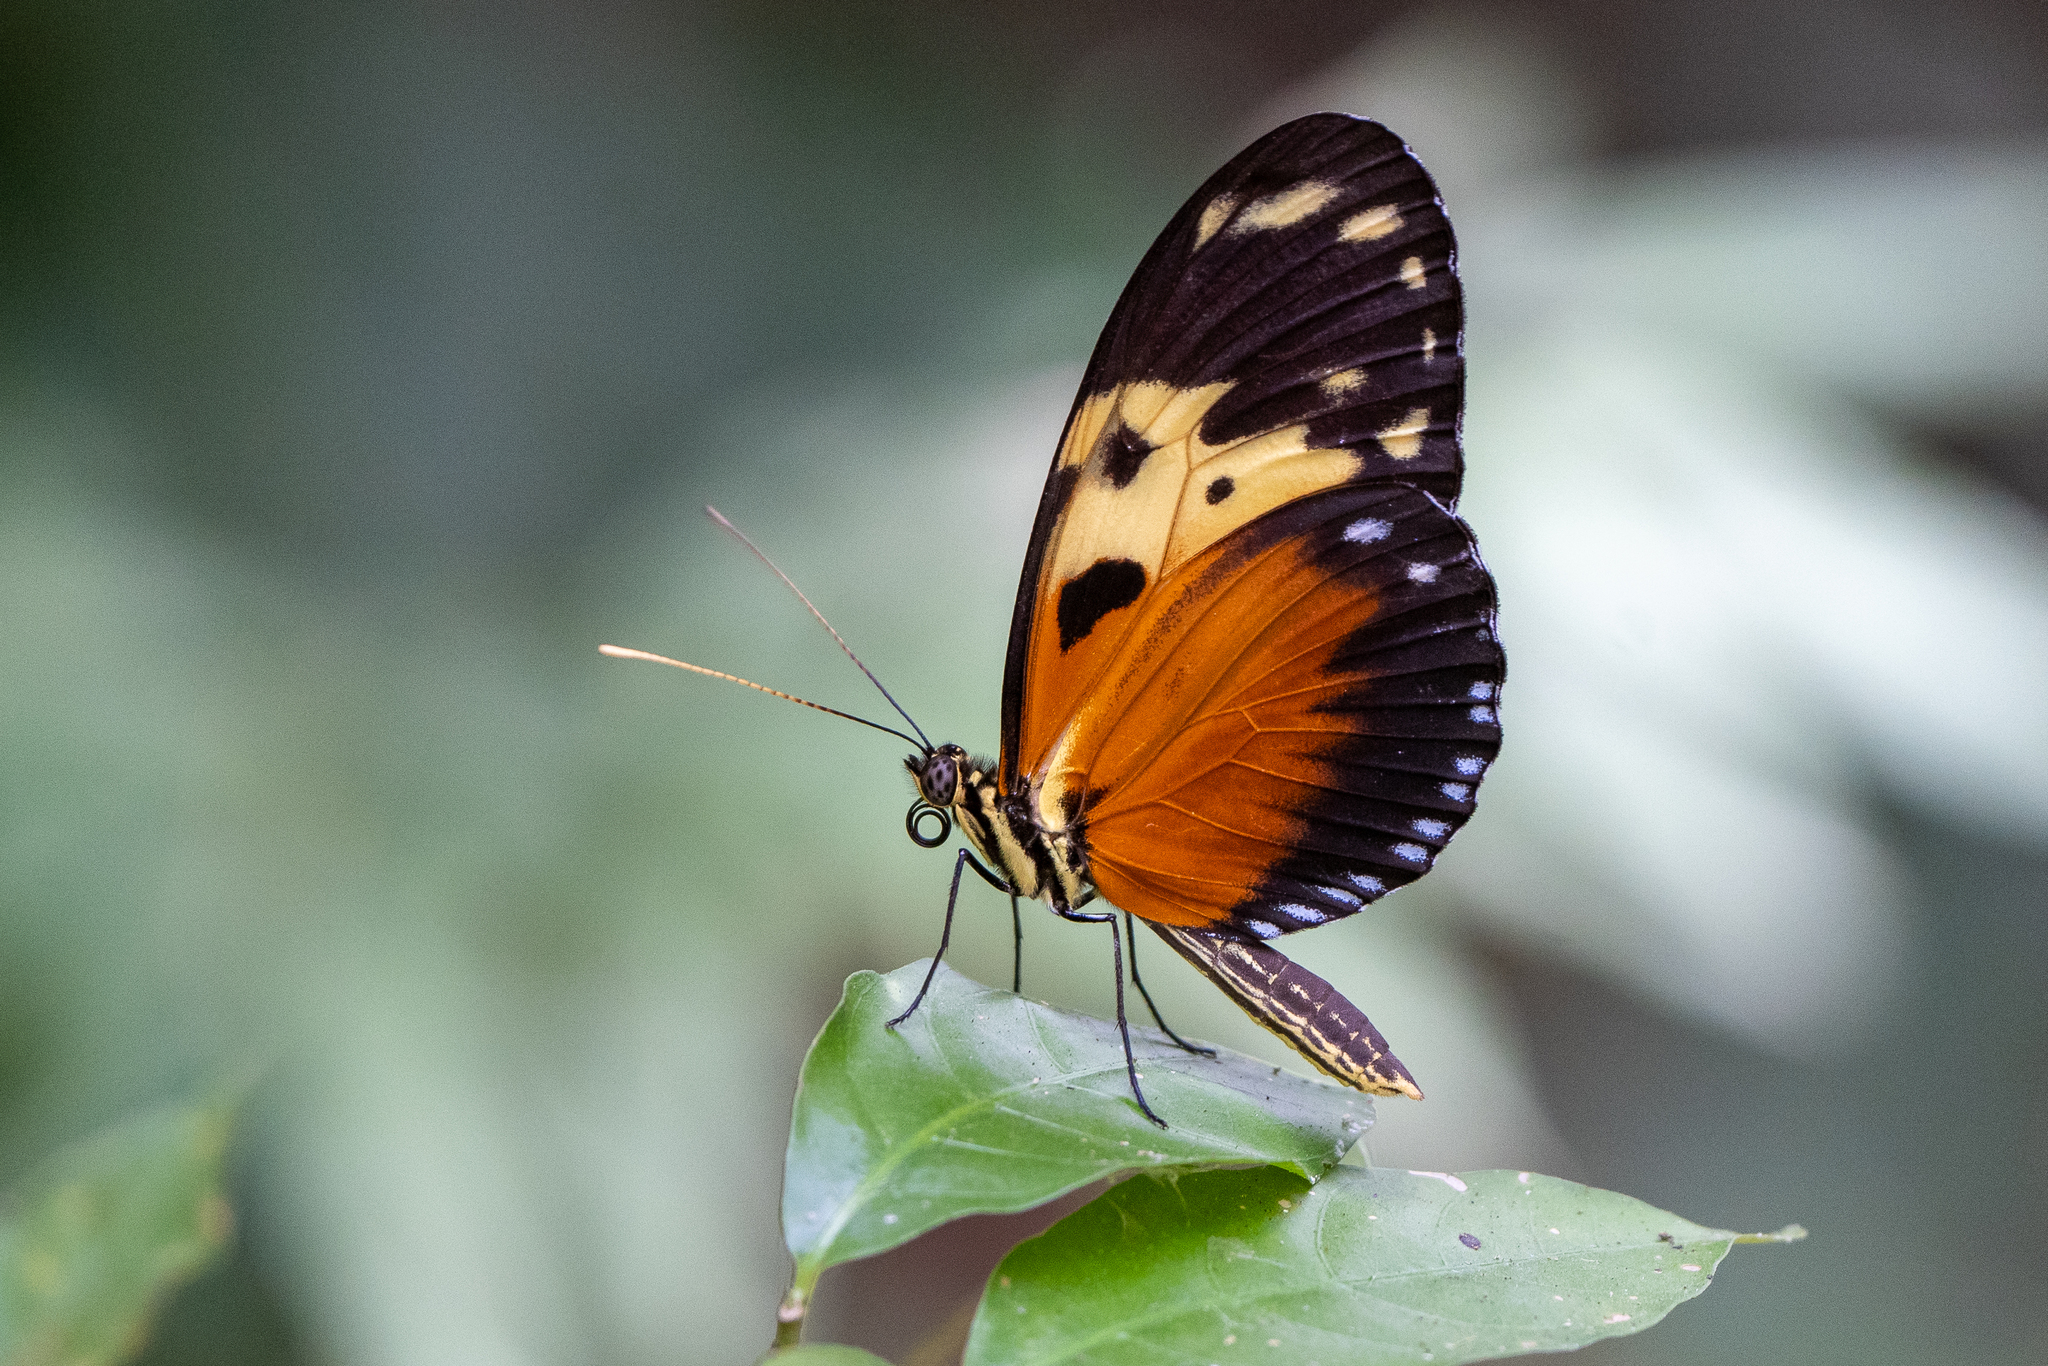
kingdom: Animalia
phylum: Arthropoda
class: Insecta
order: Lepidoptera
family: Nymphalidae
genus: Heliconius
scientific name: Heliconius hecale
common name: Tiger longwing
